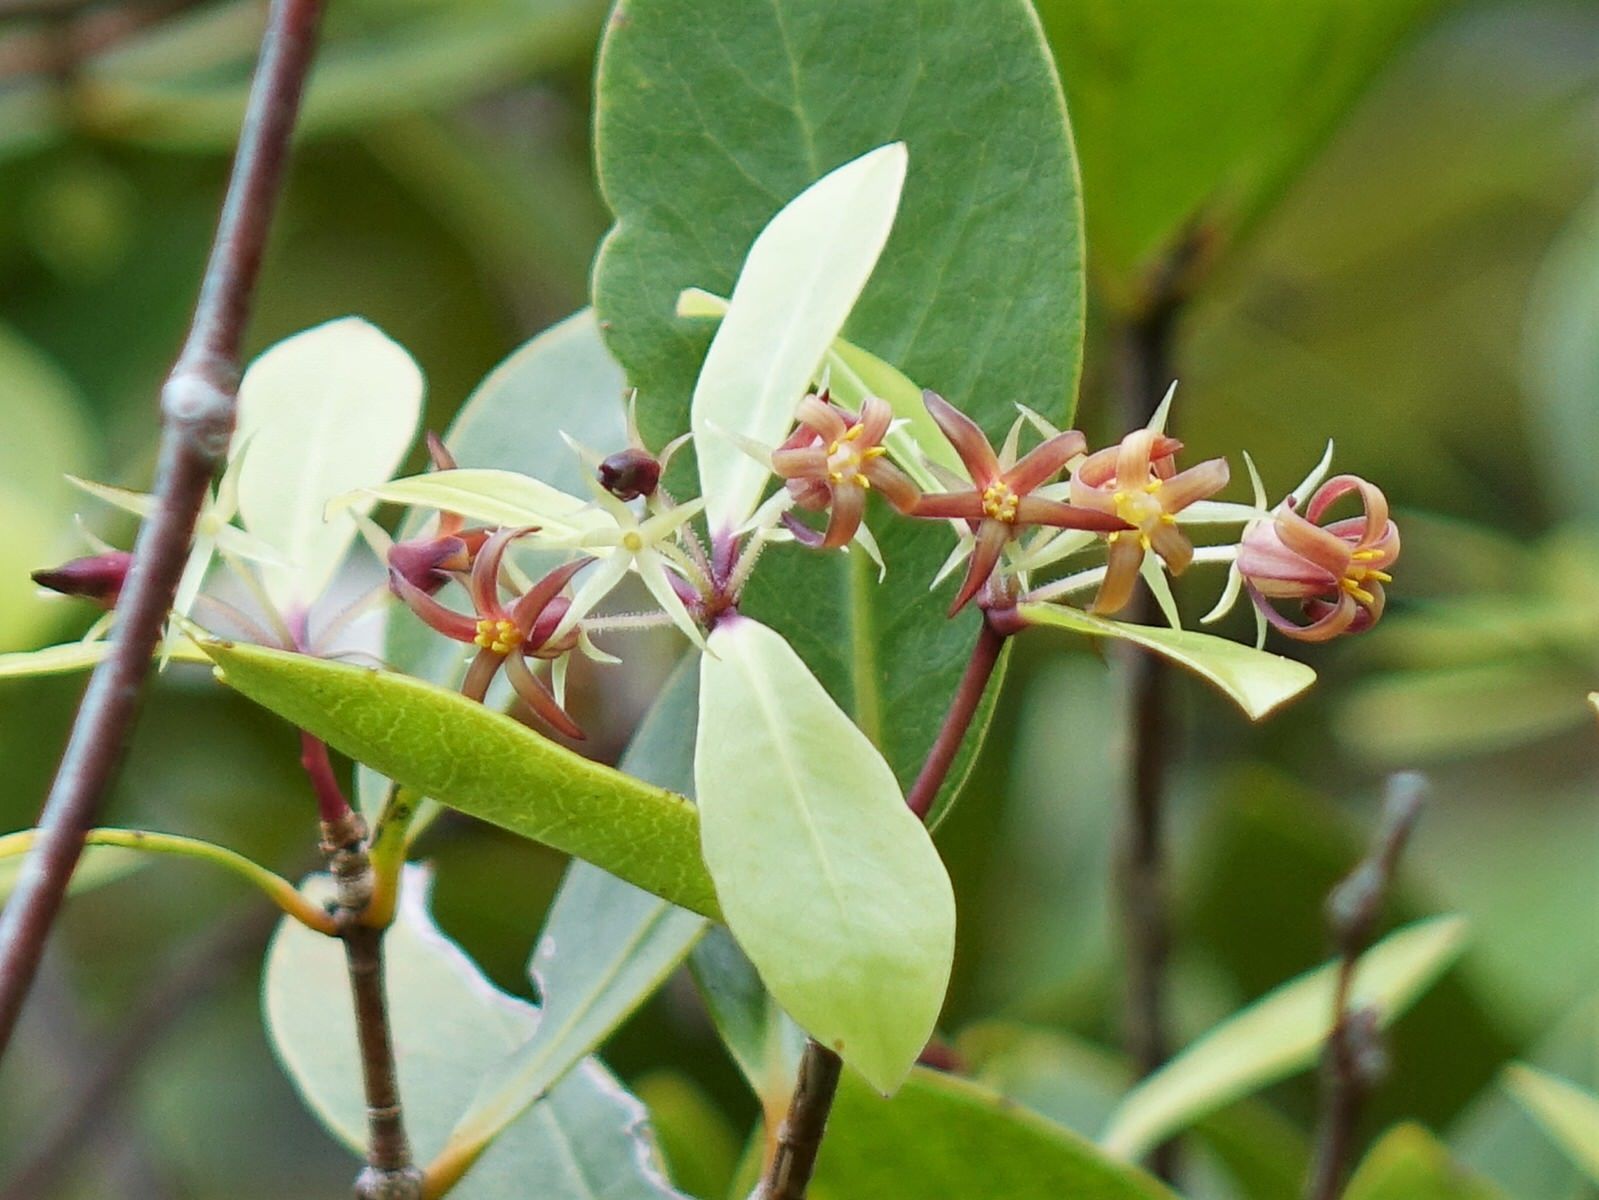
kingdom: Plantae
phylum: Tracheophyta
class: Magnoliopsida
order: Apiales
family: Pittosporaceae
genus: Pittosporum
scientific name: Pittosporum cornifolium
